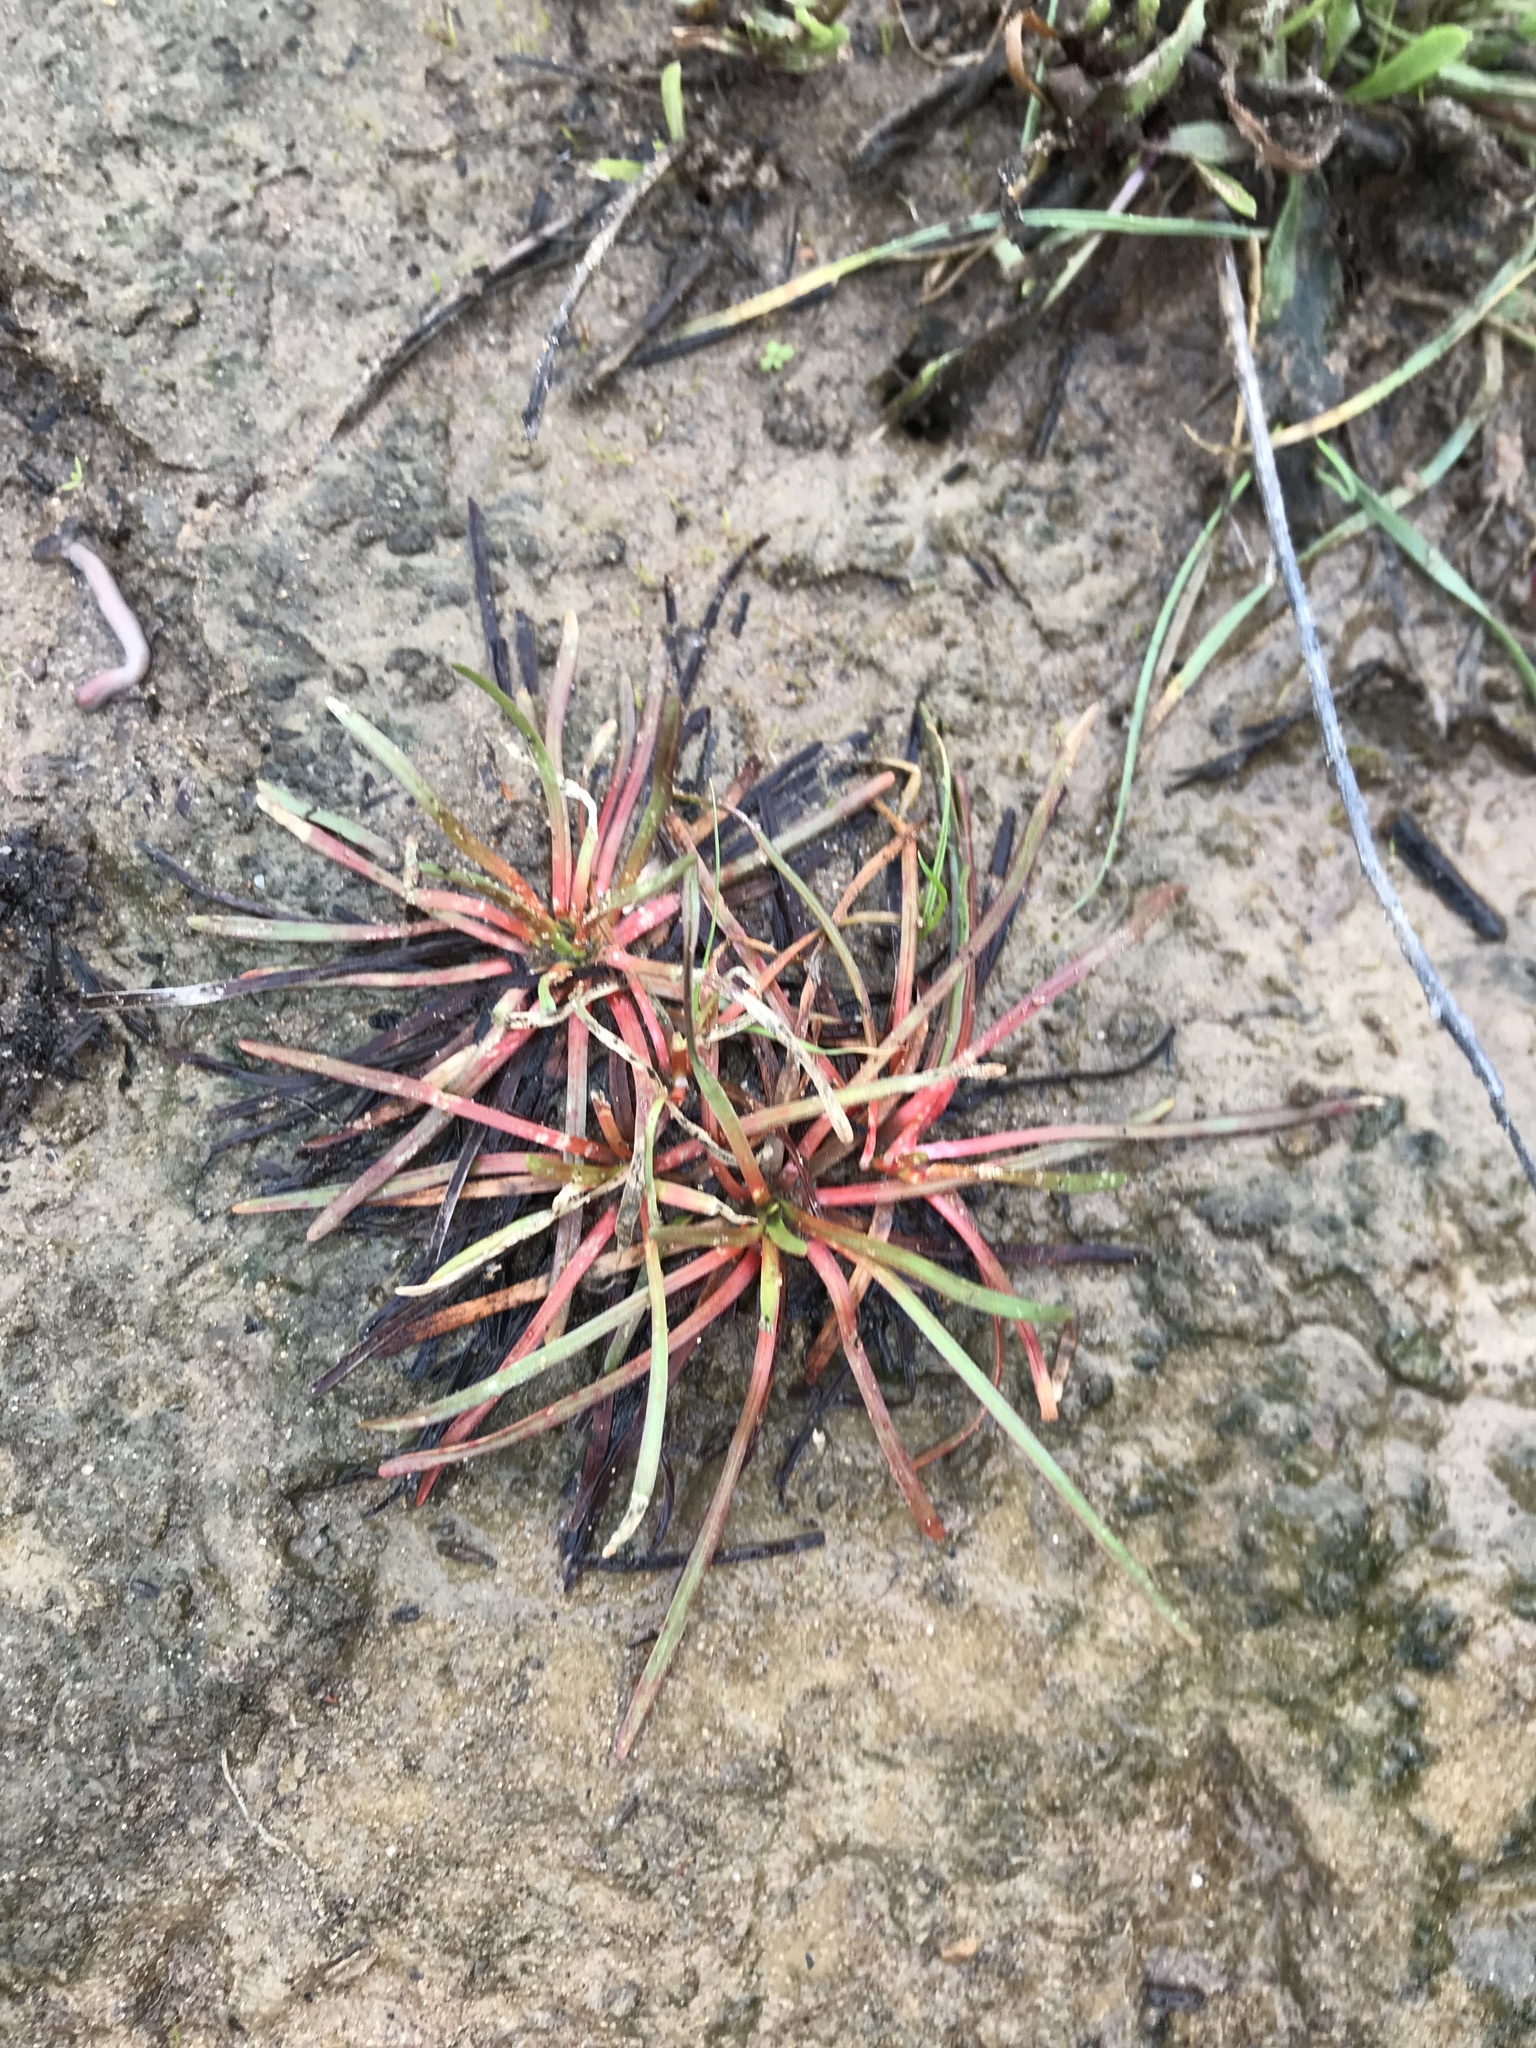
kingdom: Plantae
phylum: Tracheophyta
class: Magnoliopsida
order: Caryophyllales
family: Plumbaginaceae
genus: Armeria
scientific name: Armeria maritima
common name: Thrift
